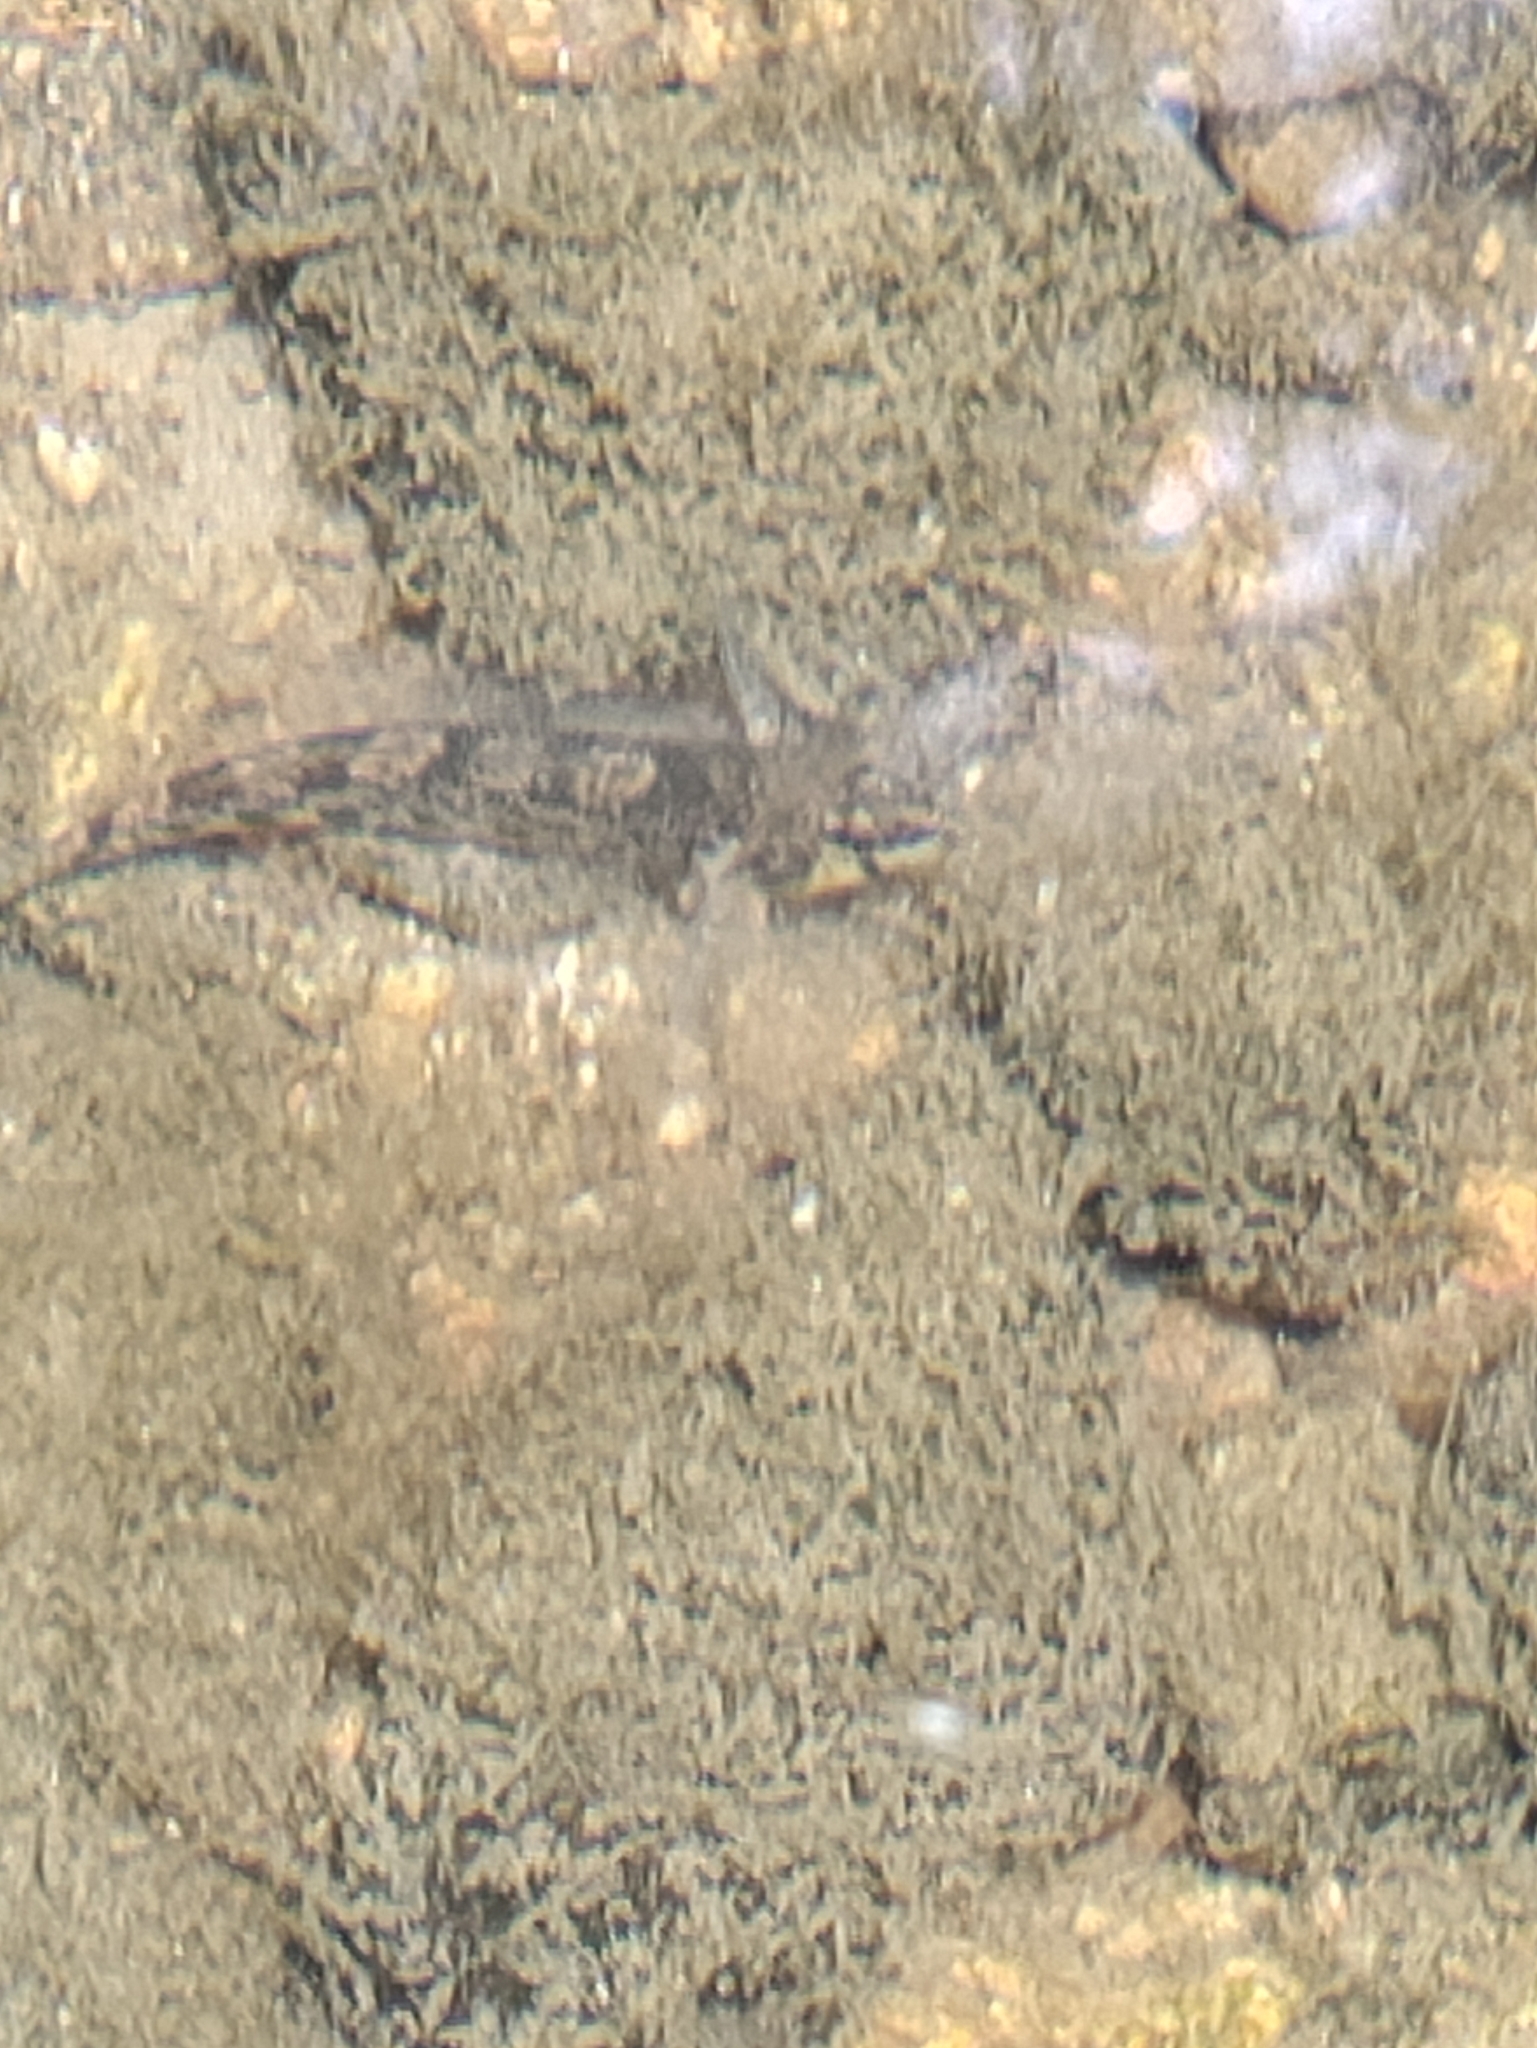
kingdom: Animalia
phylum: Chordata
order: Perciformes
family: Percidae
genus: Etheostoma
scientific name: Etheostoma olmstedi
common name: Tessellated darter
